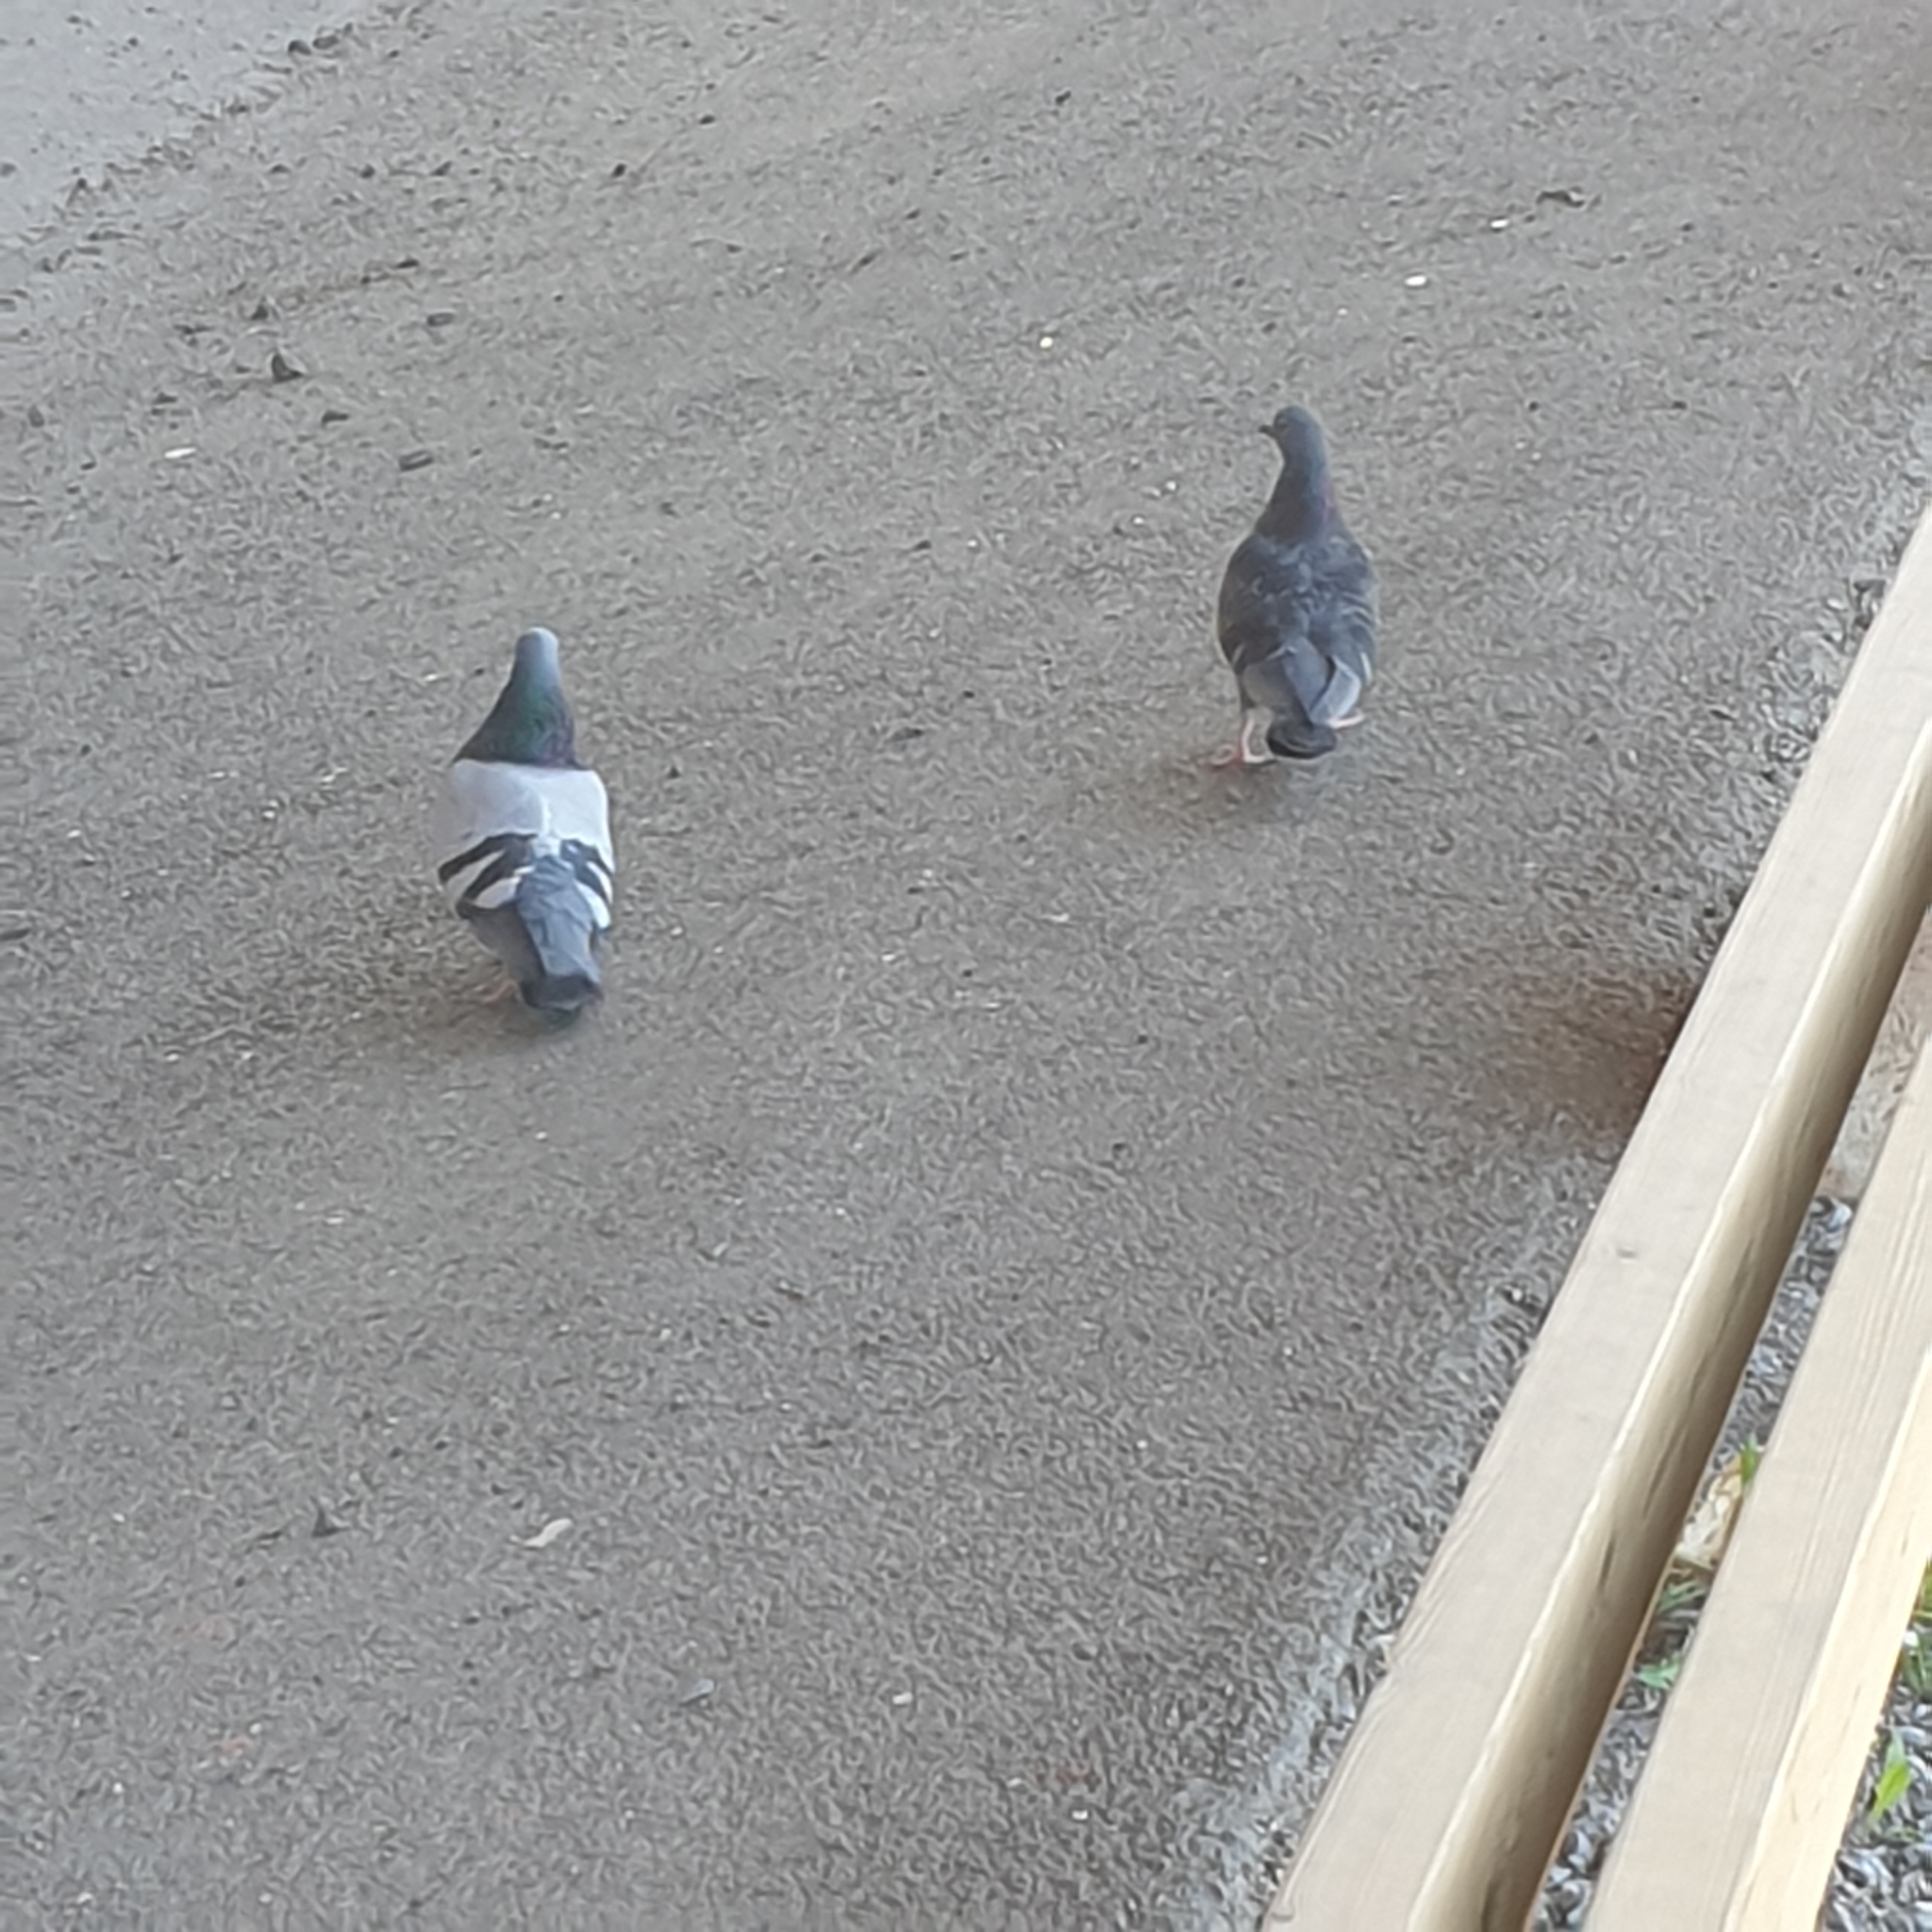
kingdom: Animalia
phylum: Chordata
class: Aves
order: Columbiformes
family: Columbidae
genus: Columba
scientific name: Columba livia
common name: Rock pigeon
